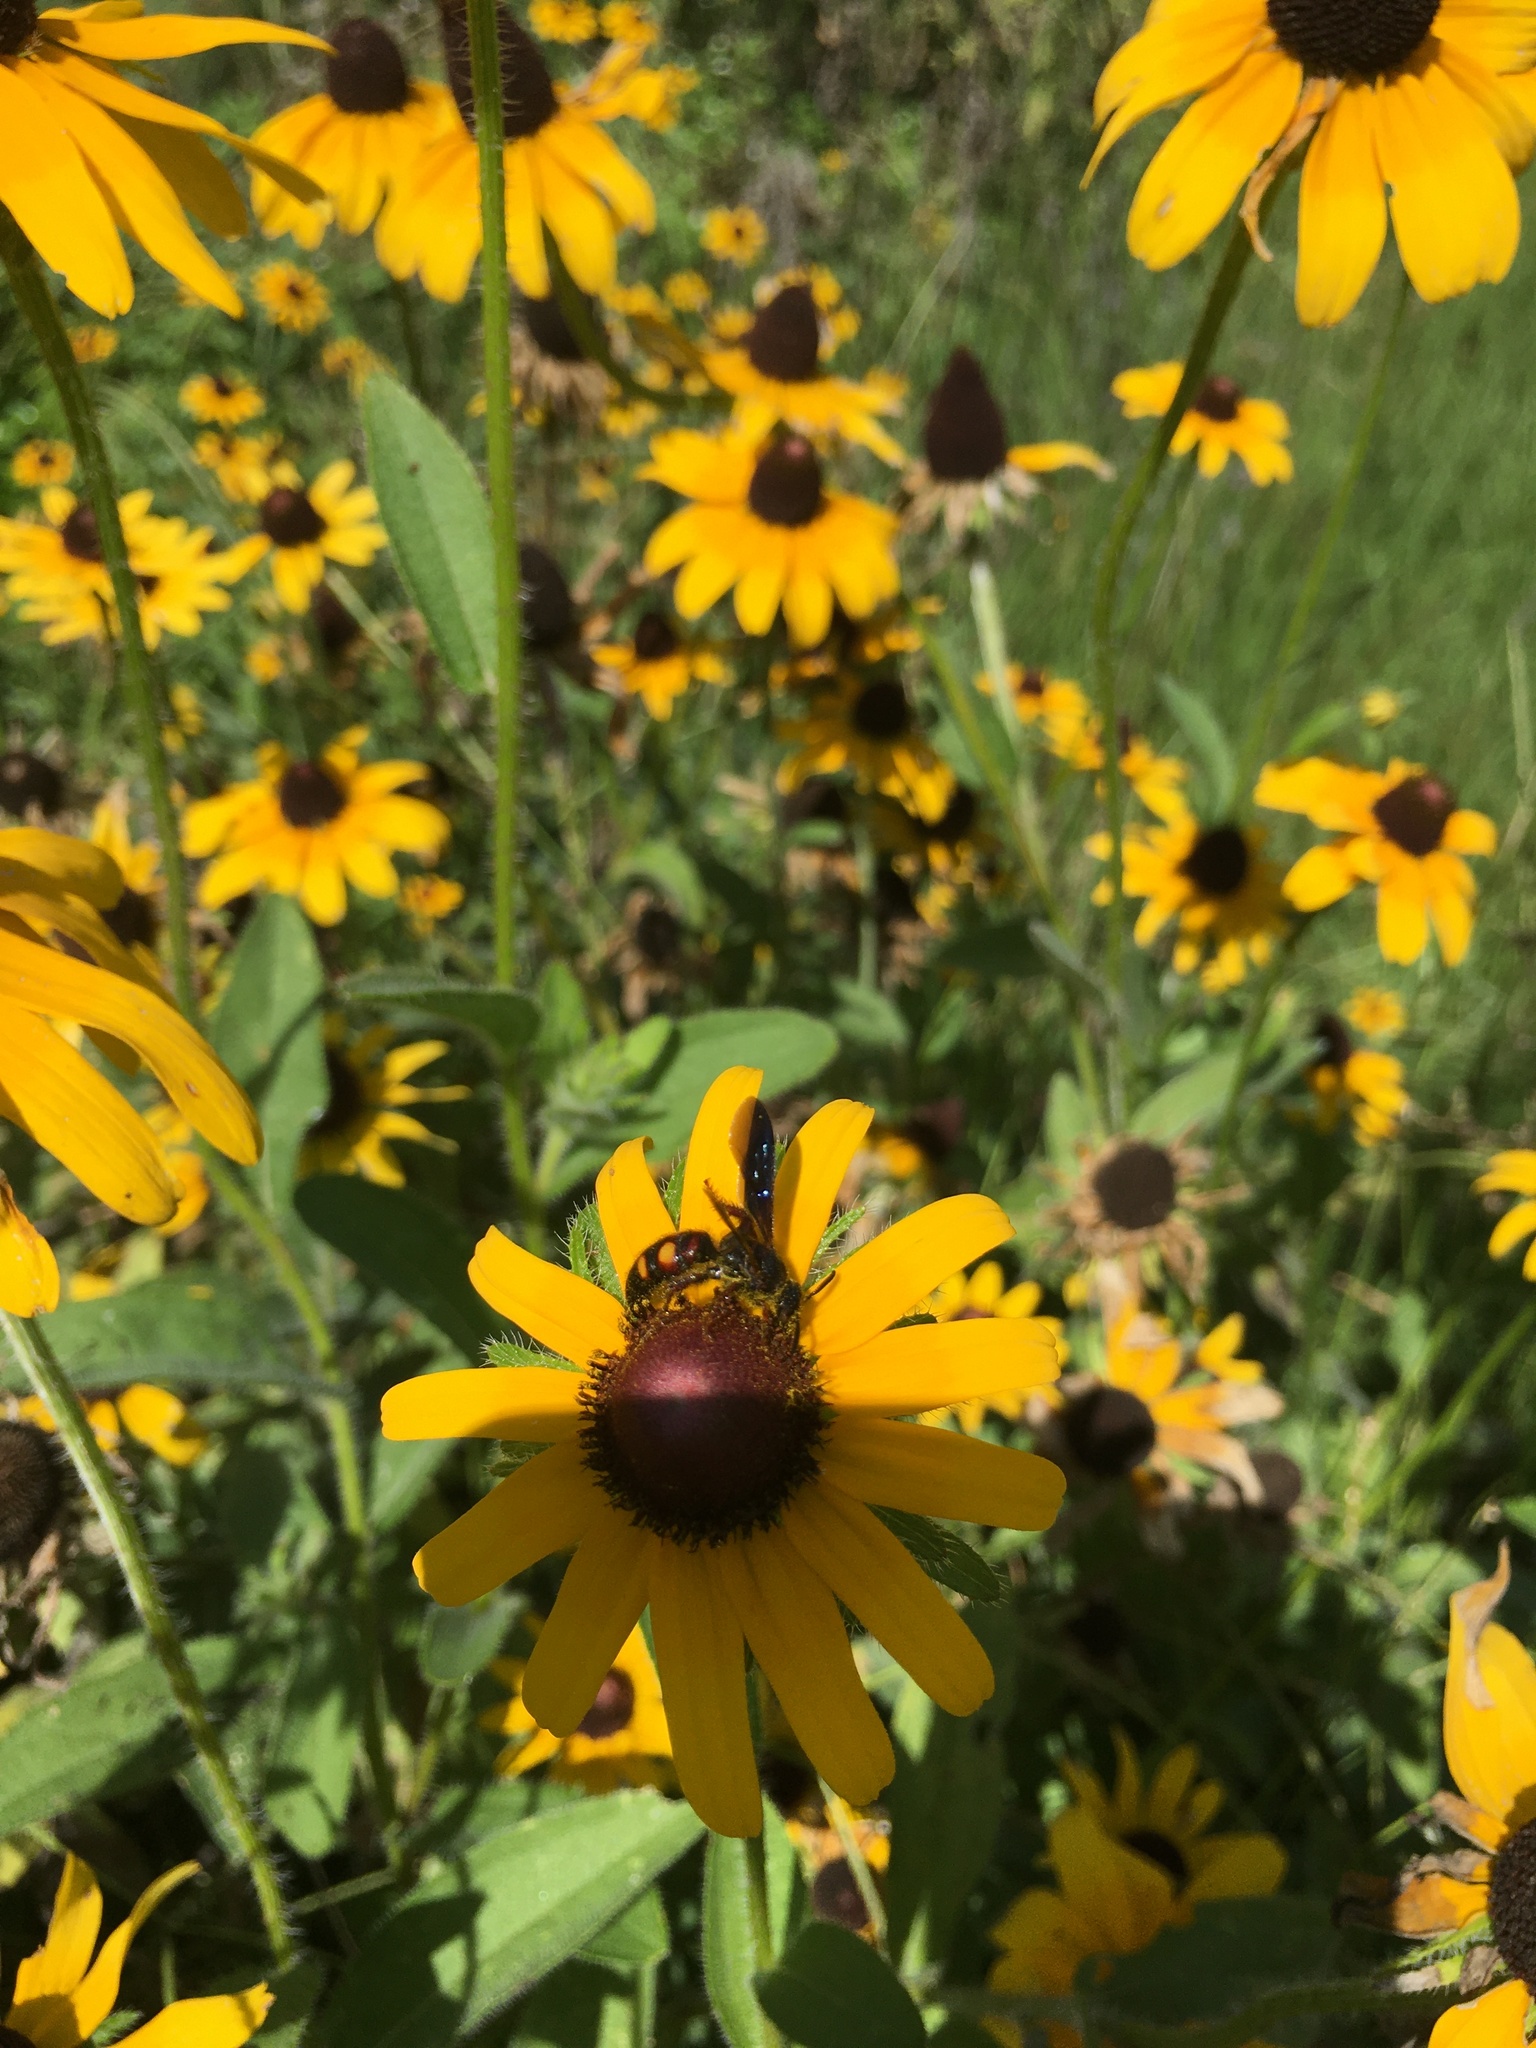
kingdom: Animalia
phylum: Arthropoda
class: Insecta
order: Hymenoptera
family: Scoliidae
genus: Scolia
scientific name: Scolia nobilitata
